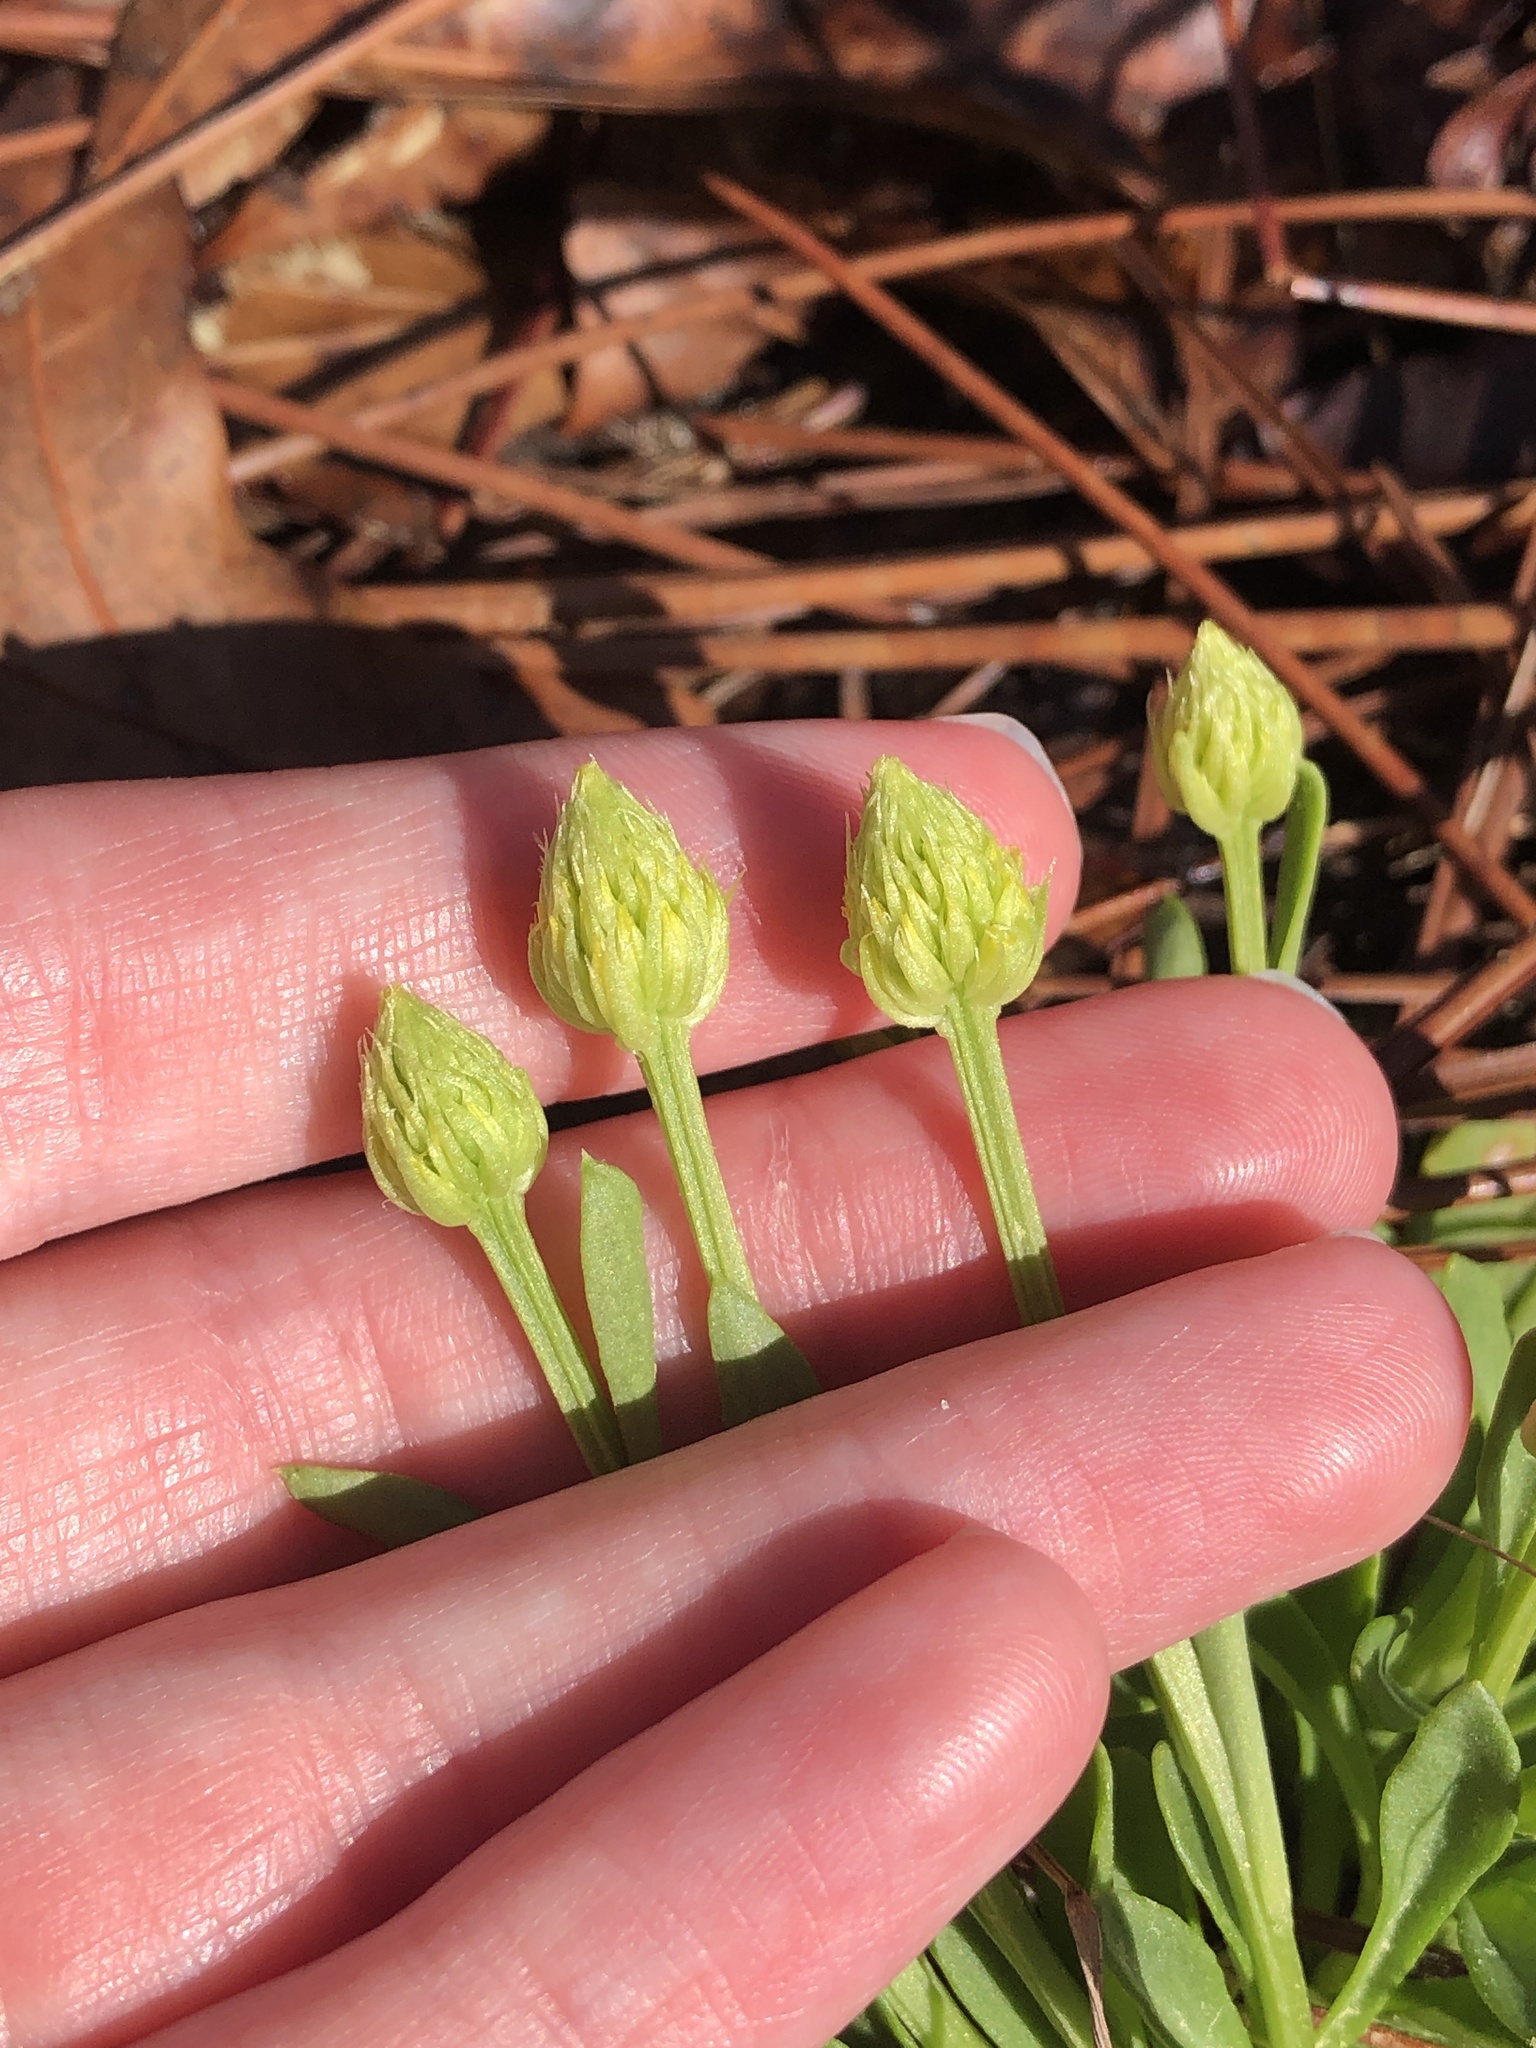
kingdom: Plantae
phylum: Tracheophyta
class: Magnoliopsida
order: Fabales
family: Polygalaceae
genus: Polygala
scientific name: Polygala nana
